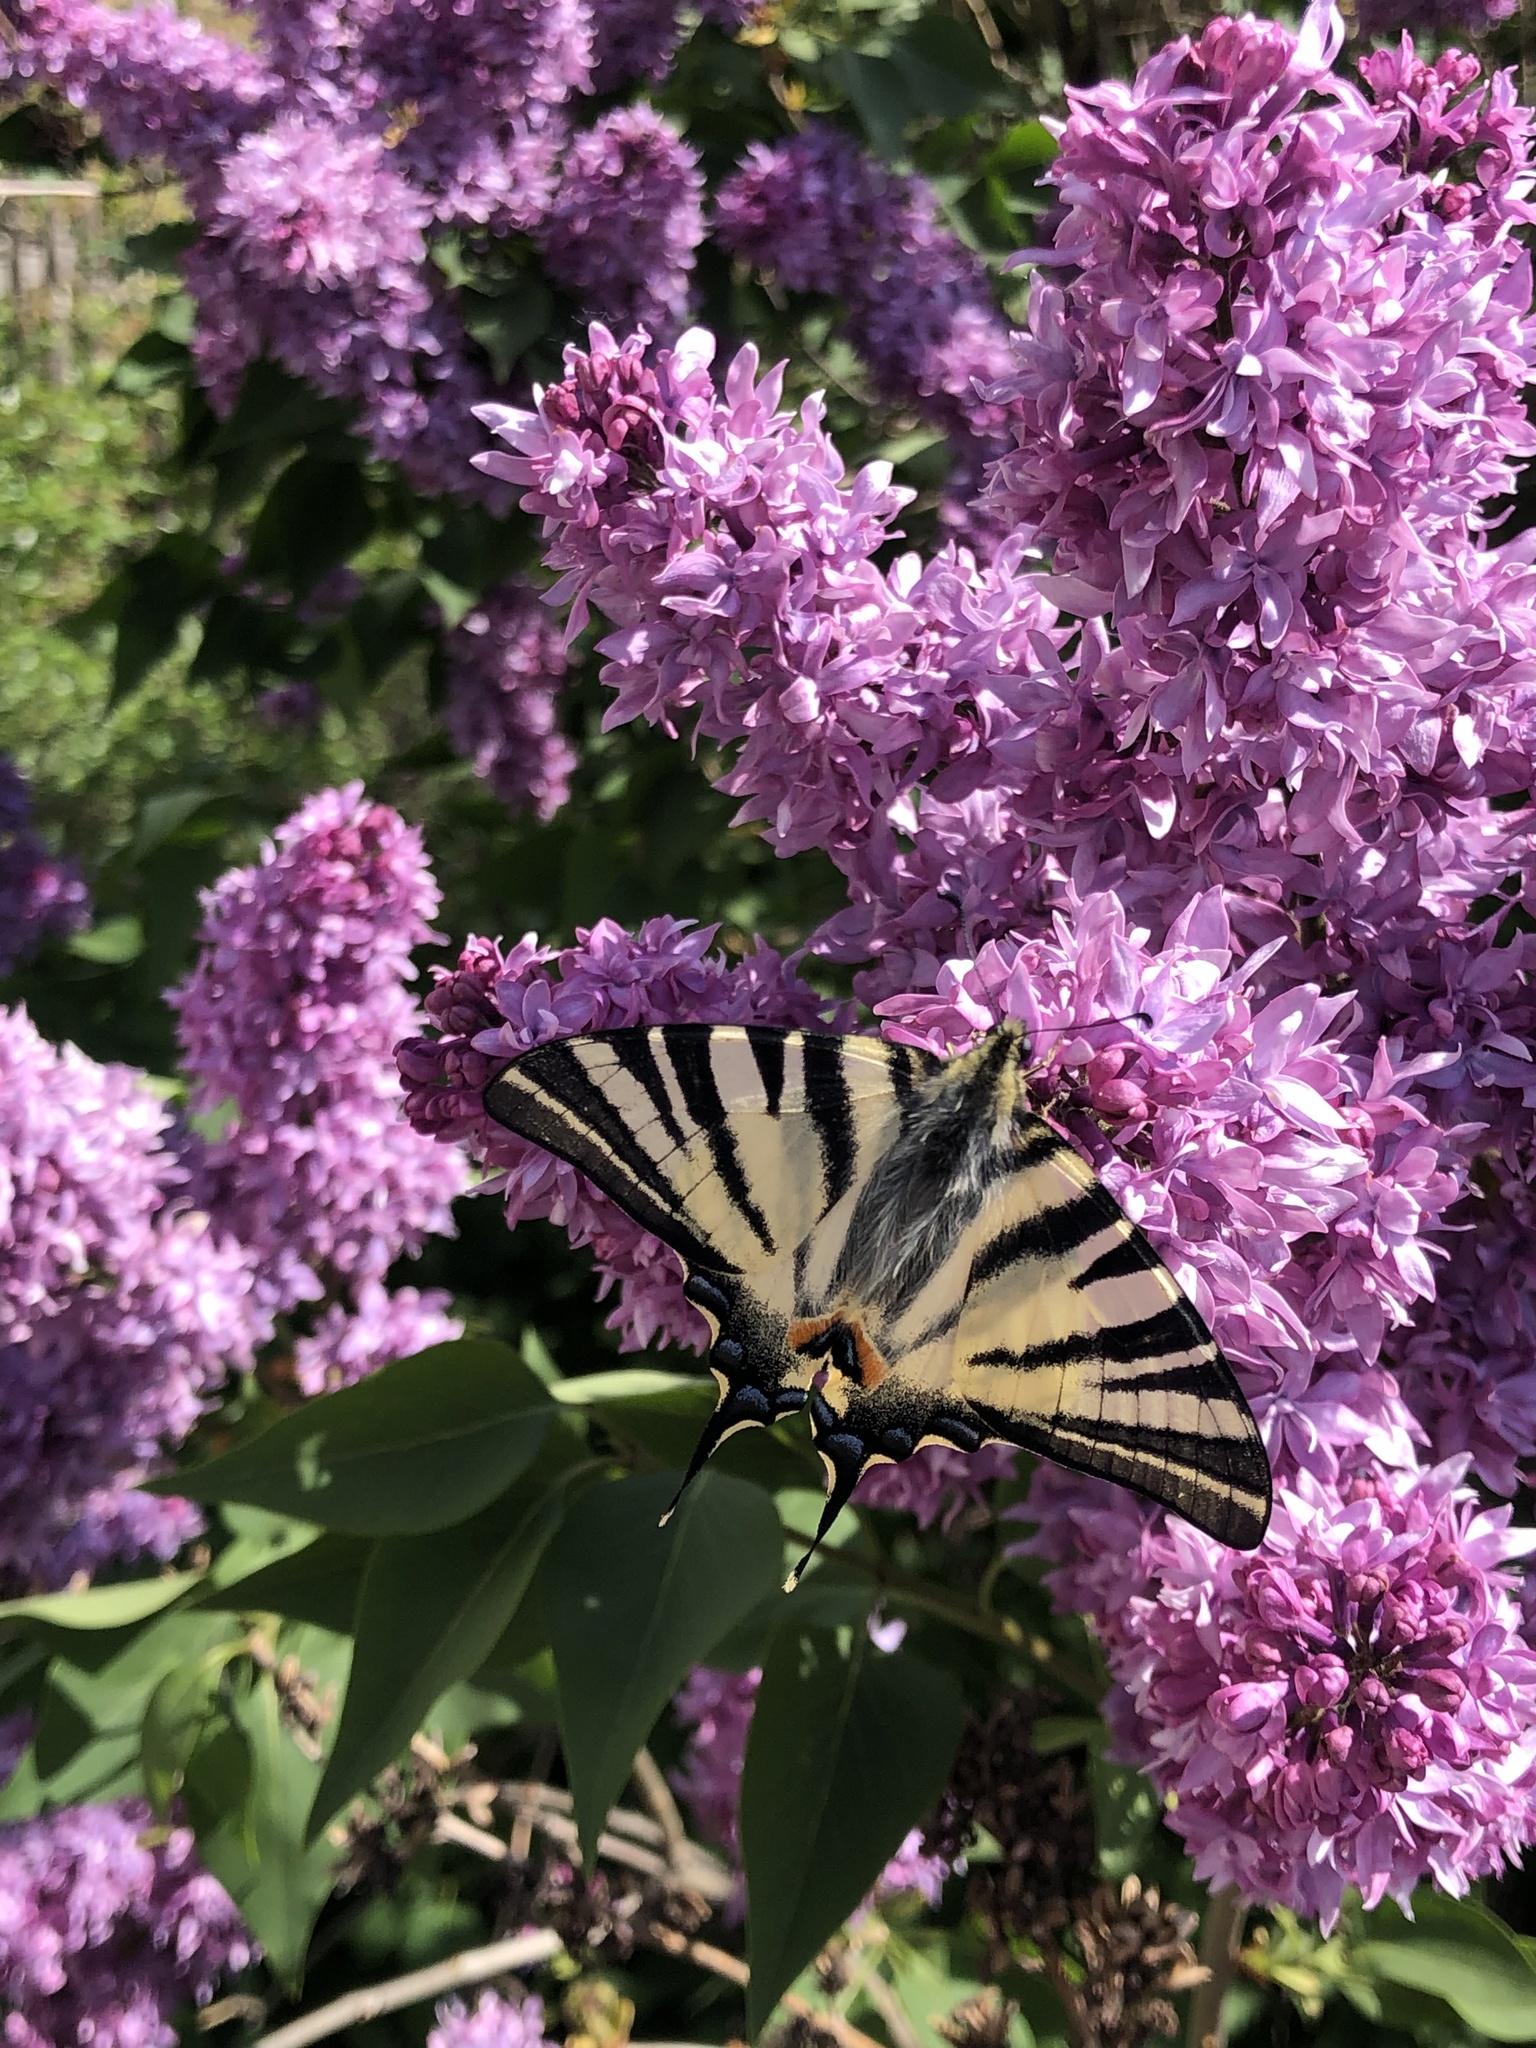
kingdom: Animalia
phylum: Arthropoda
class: Insecta
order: Lepidoptera
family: Papilionidae
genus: Iphiclides
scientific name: Iphiclides podalirius
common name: Scarce swallowtail
